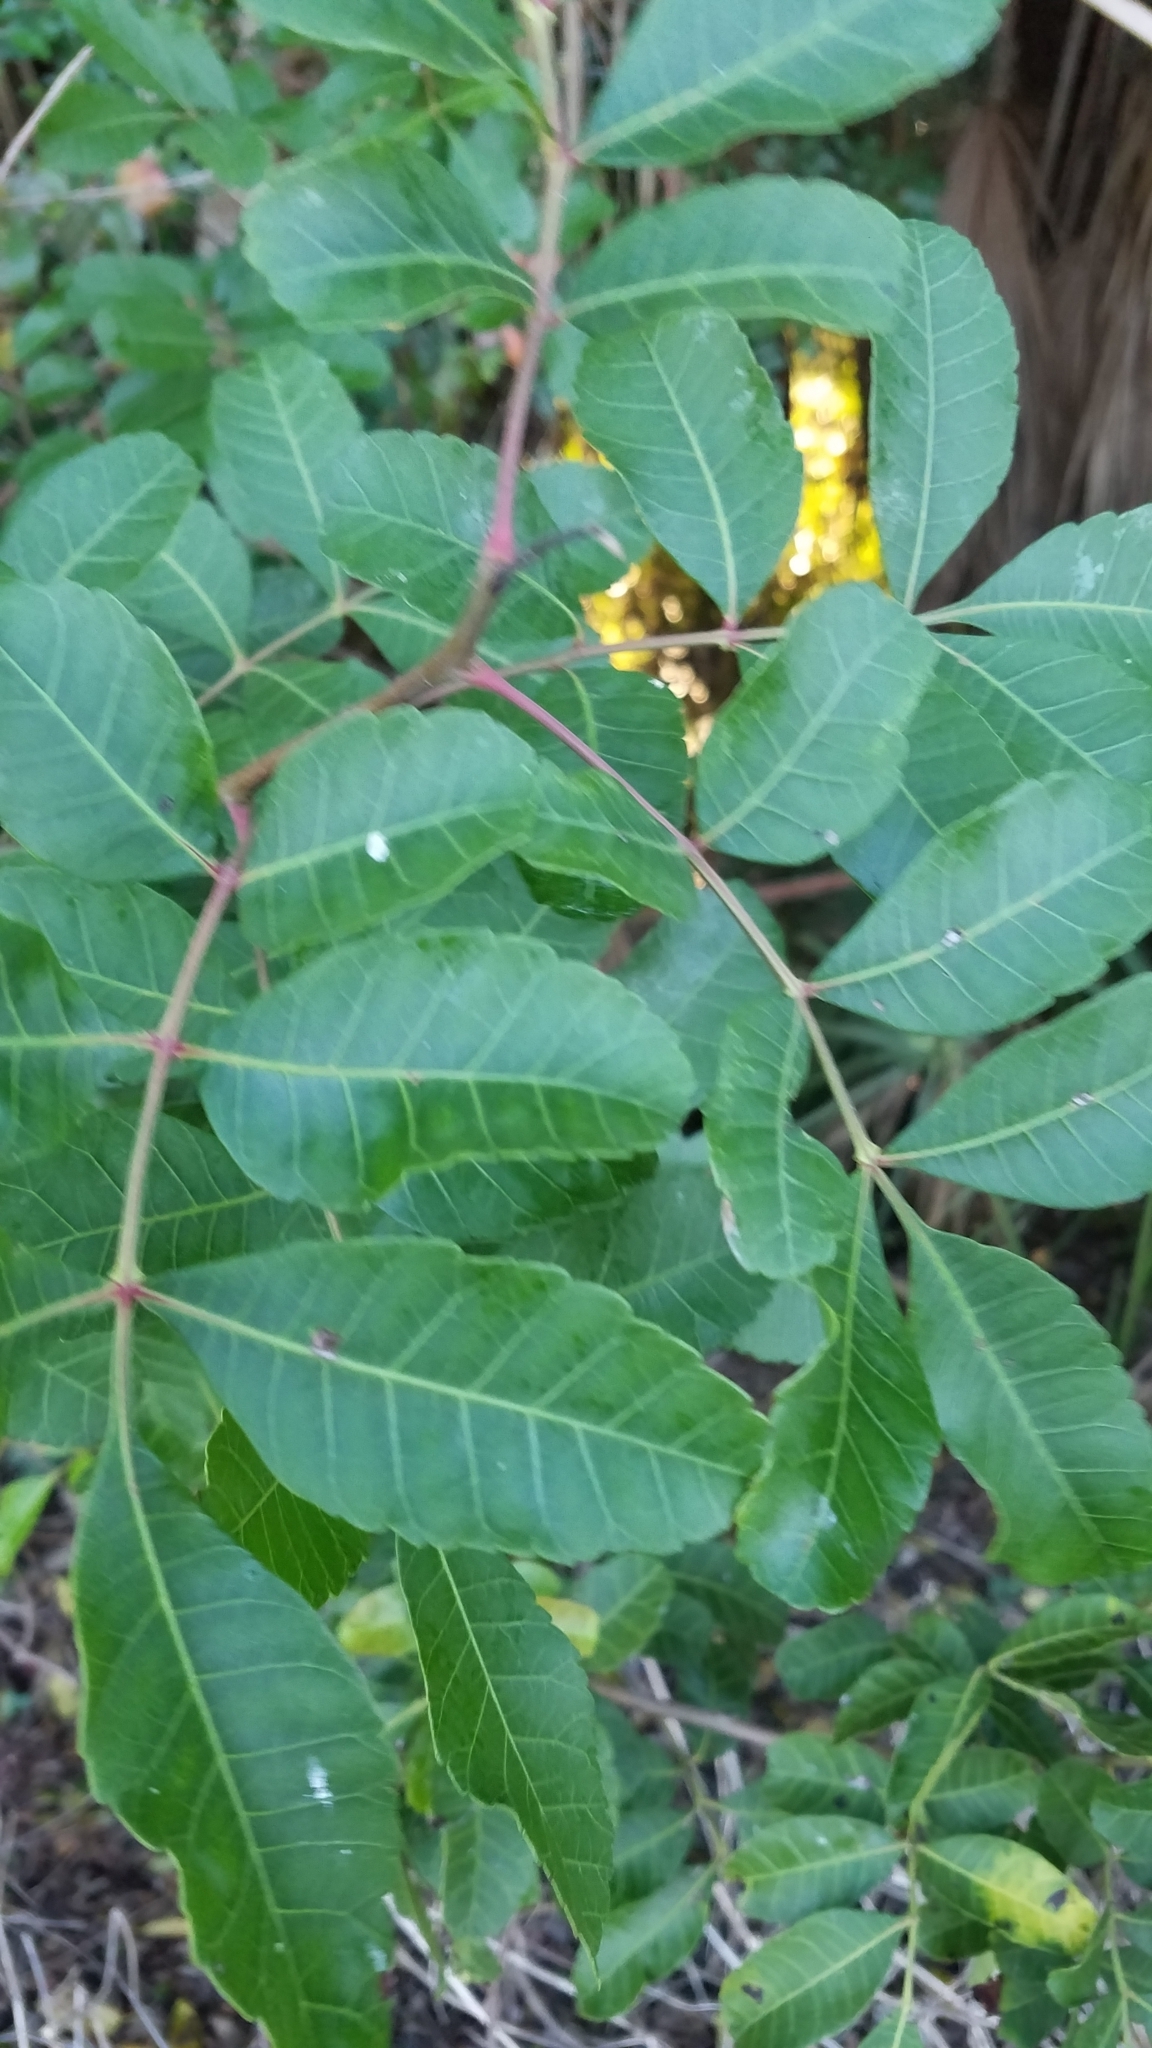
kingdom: Plantae
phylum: Tracheophyta
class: Magnoliopsida
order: Sapindales
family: Anacardiaceae
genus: Schinus
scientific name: Schinus terebinthifolia
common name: Brazilian peppertree
